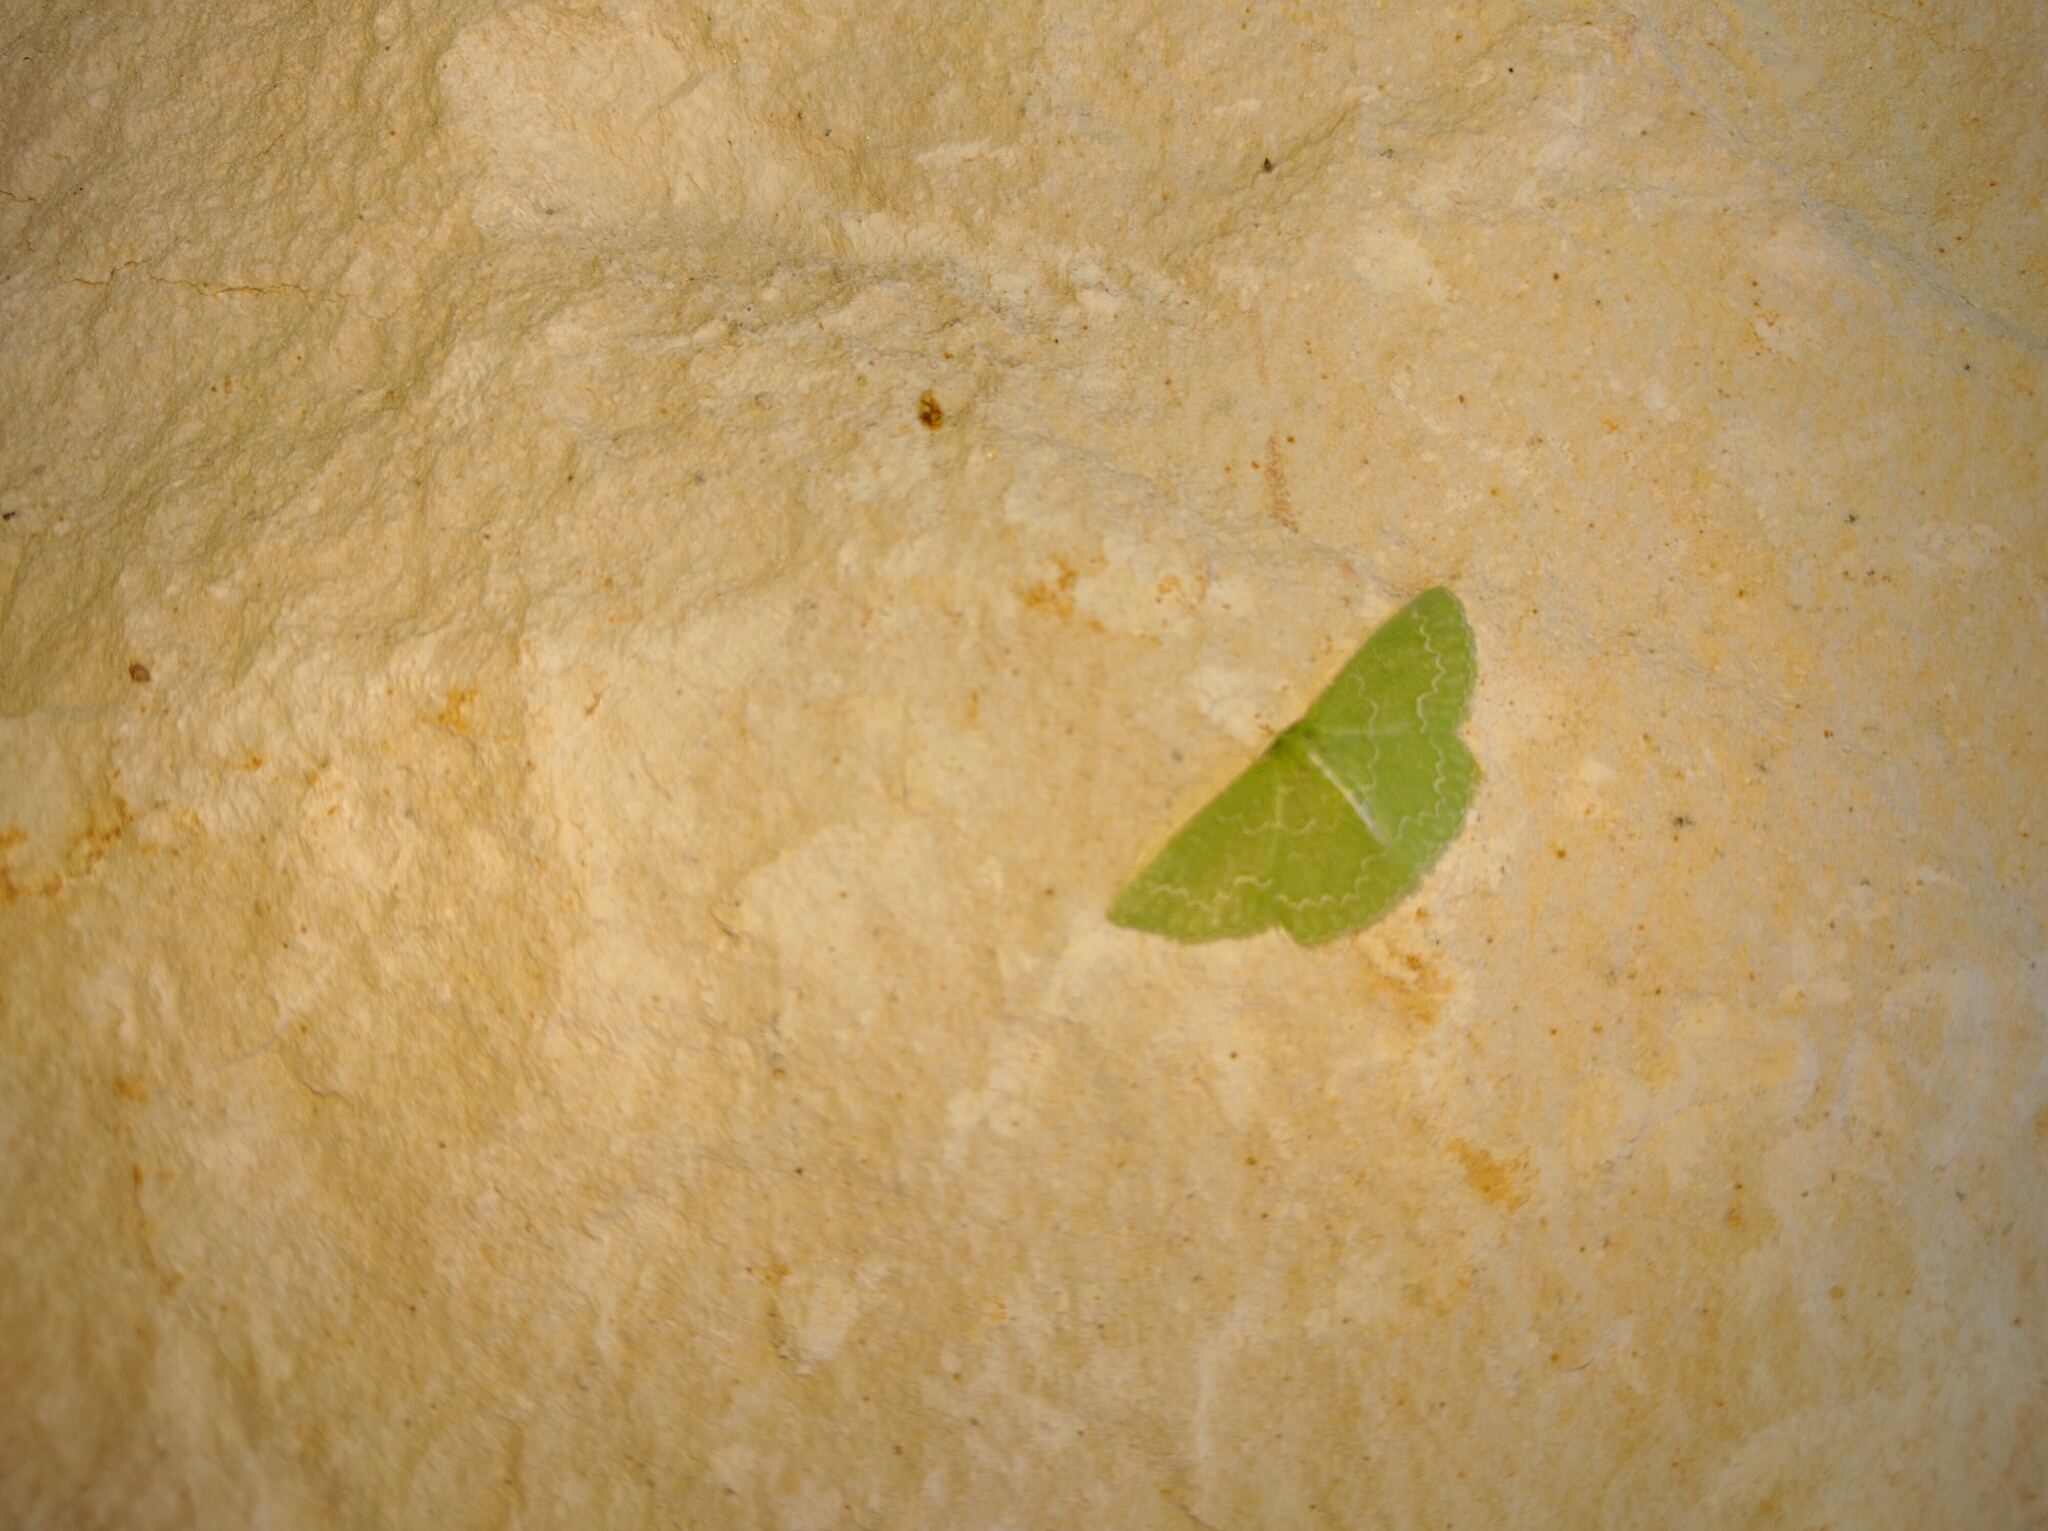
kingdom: Animalia
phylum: Arthropoda
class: Insecta
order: Lepidoptera
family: Geometridae
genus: Synchlora
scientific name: Synchlora frondaria
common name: Southern emerald
